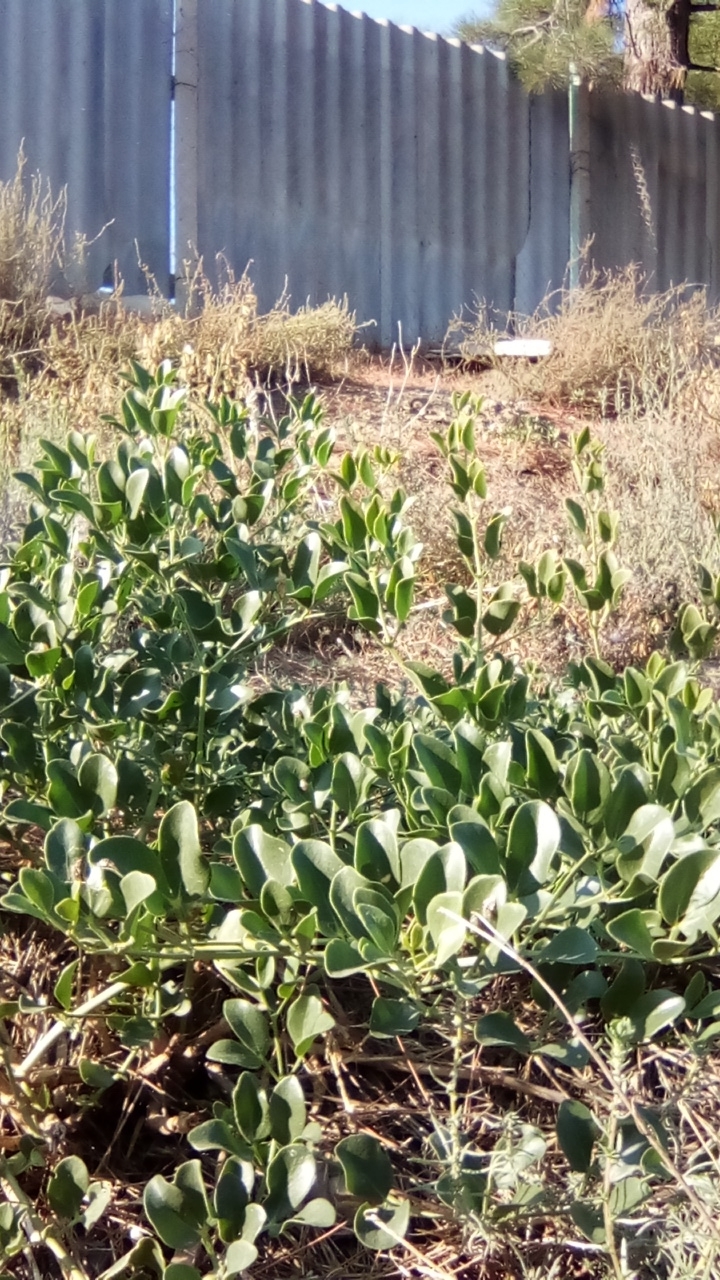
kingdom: Plantae
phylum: Tracheophyta
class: Magnoliopsida
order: Brassicales
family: Capparaceae
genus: Capparis
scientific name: Capparis spinosa
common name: Caper
